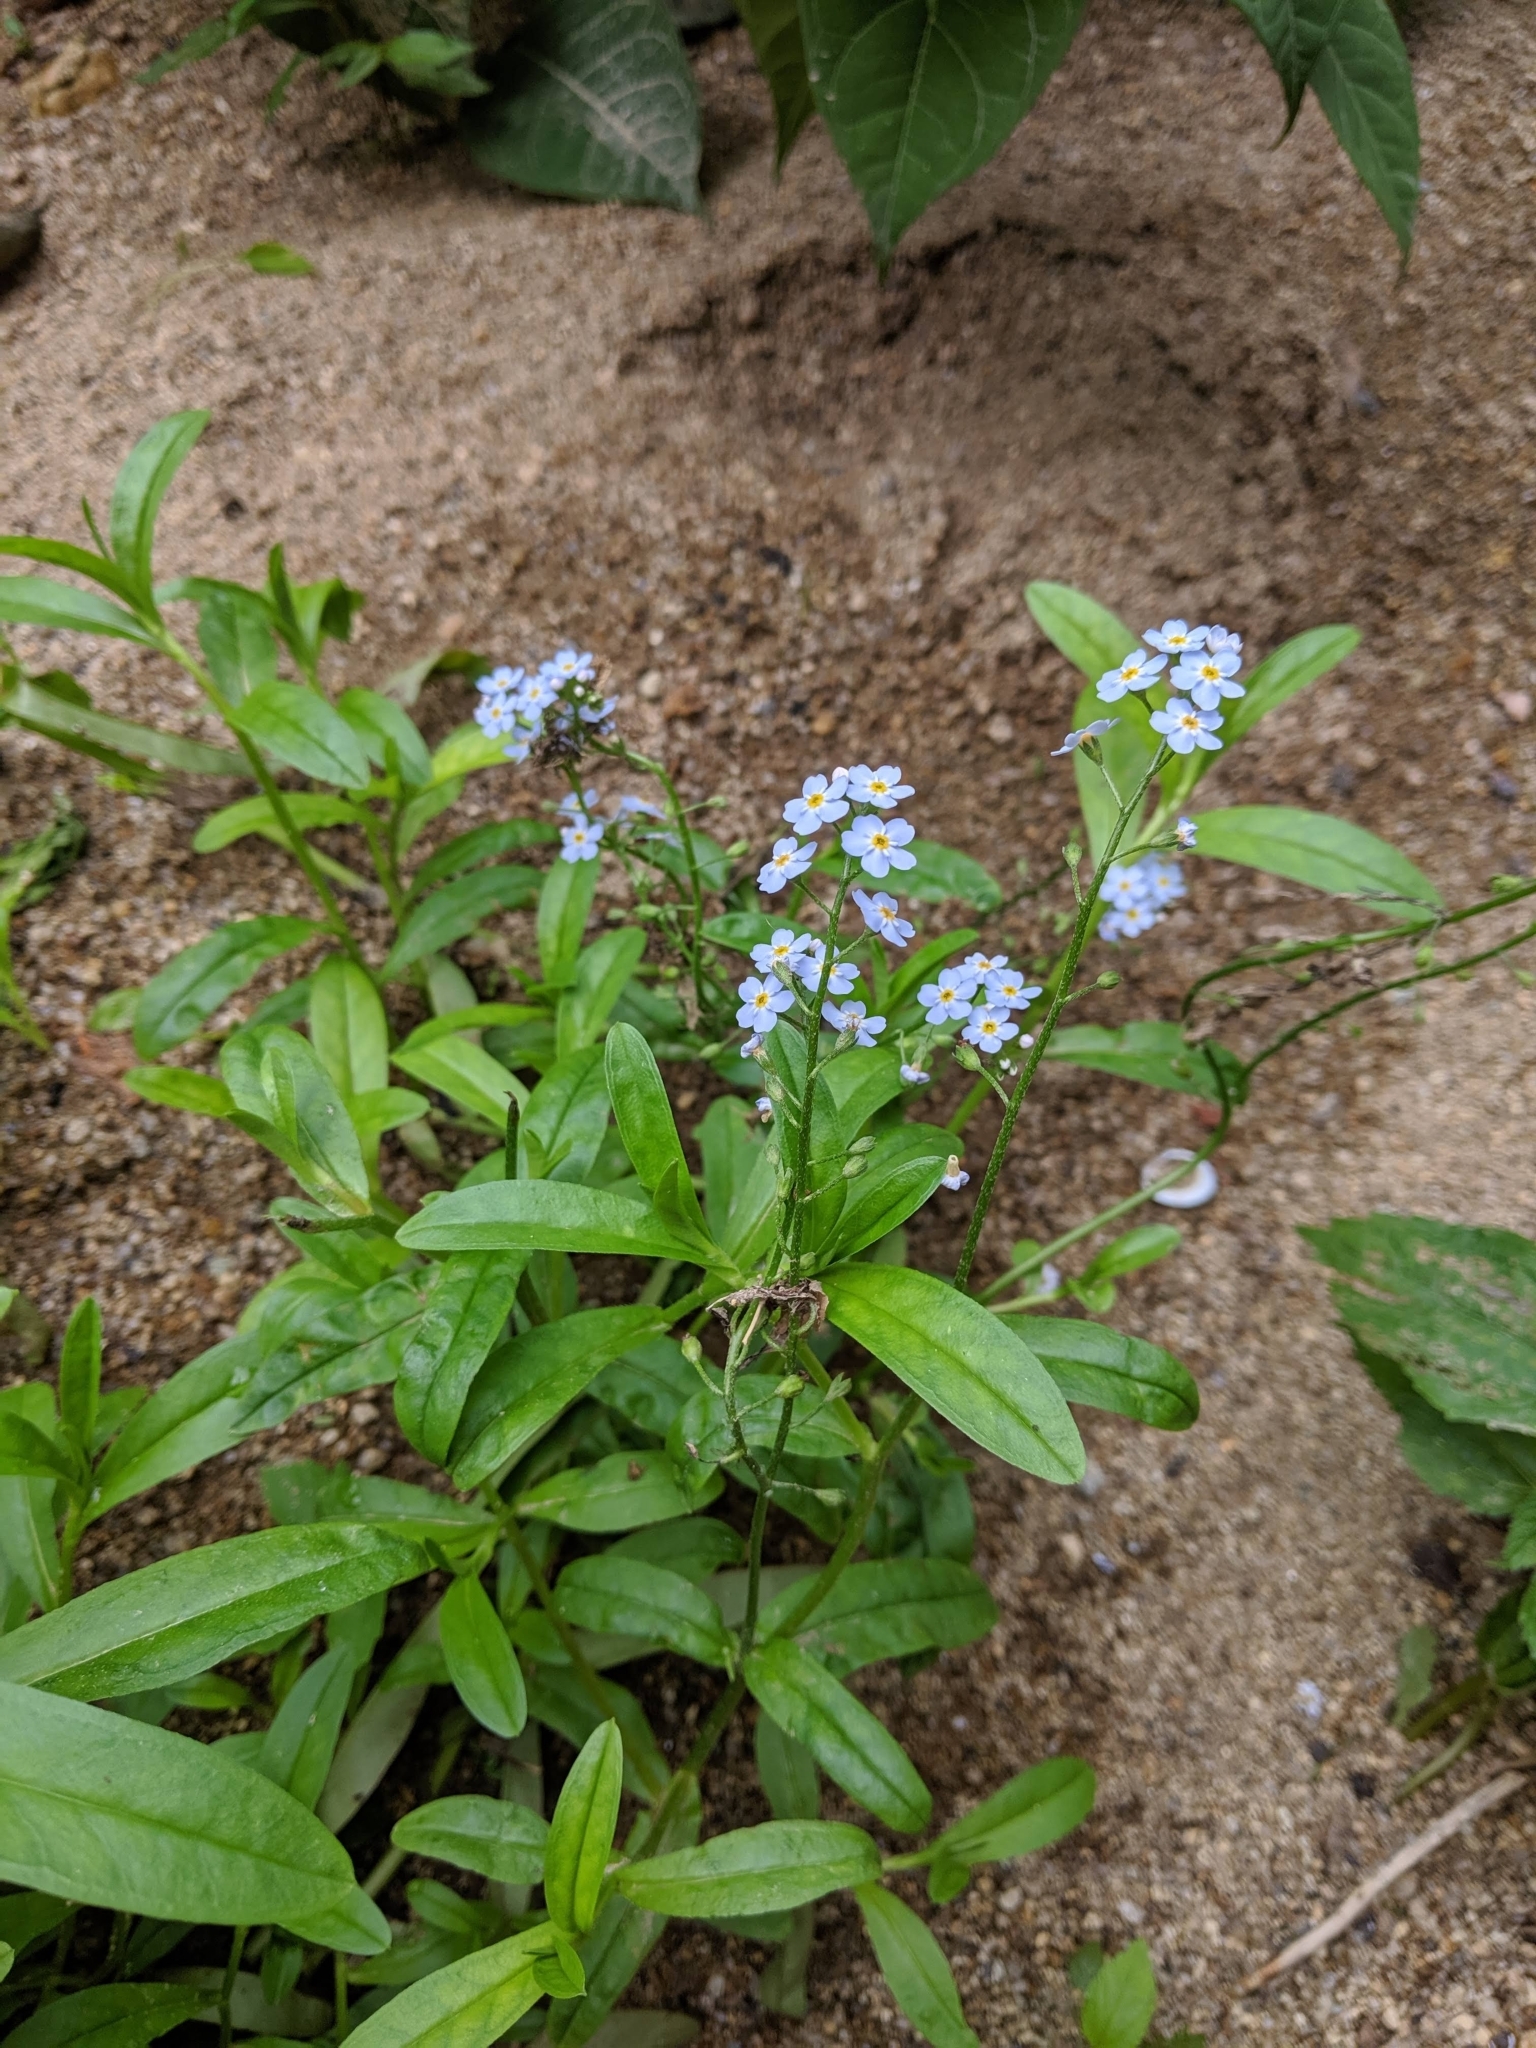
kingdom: Plantae
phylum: Tracheophyta
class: Magnoliopsida
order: Boraginales
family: Boraginaceae
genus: Myosotis
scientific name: Myosotis scorpioides
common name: Water forget-me-not
